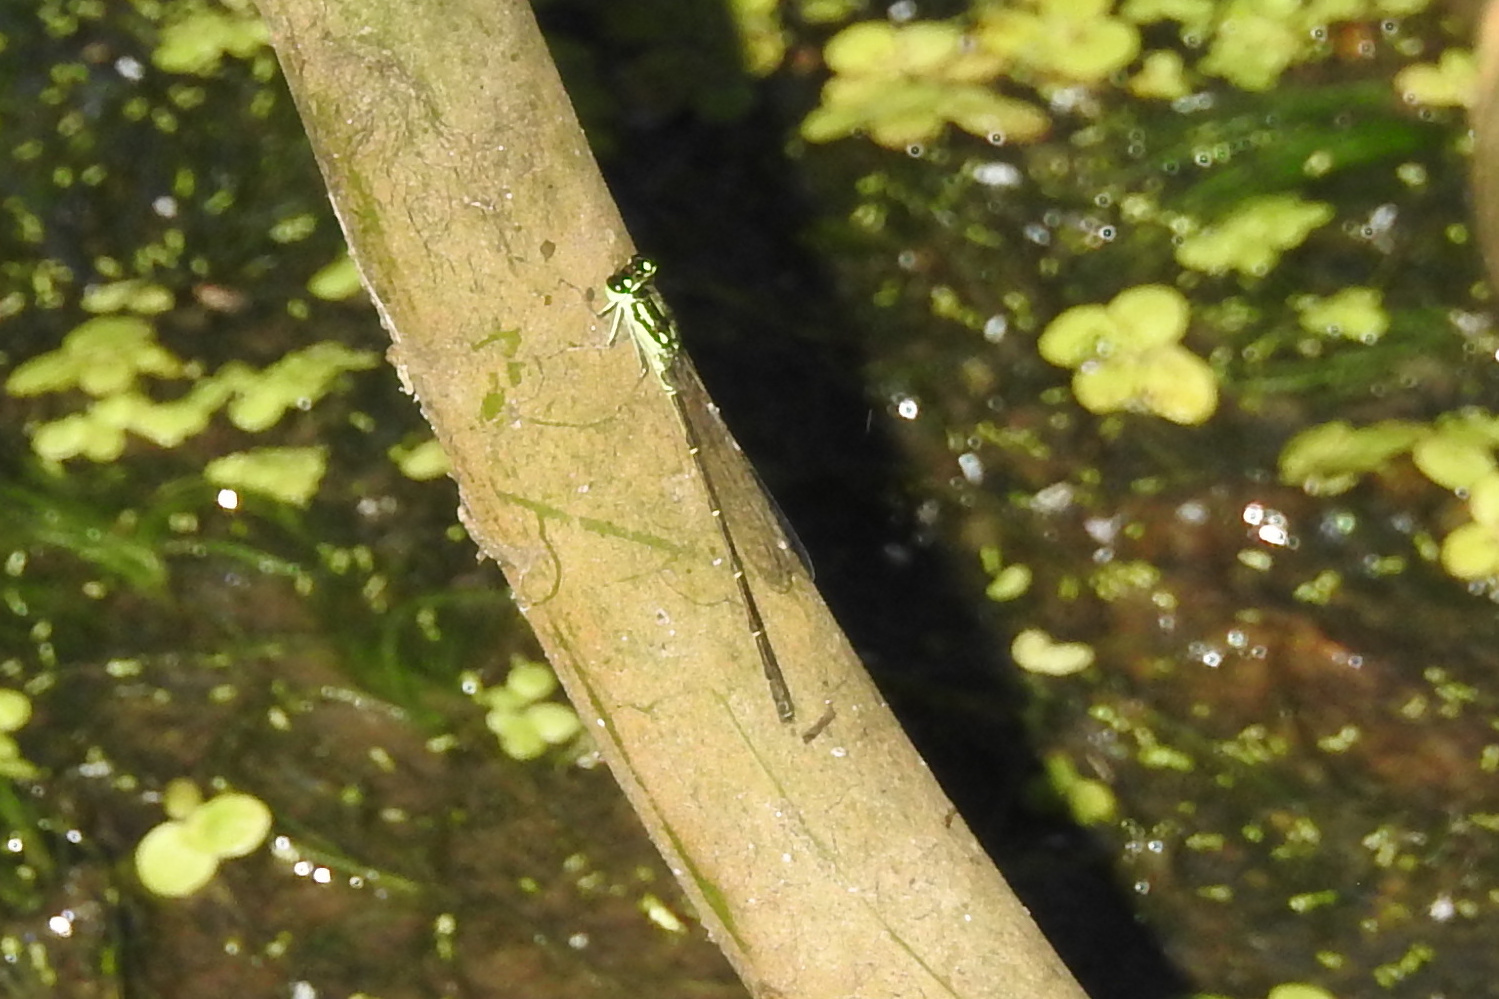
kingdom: Animalia
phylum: Arthropoda
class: Insecta
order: Odonata
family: Coenagrionidae
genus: Ischnura
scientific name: Ischnura posita
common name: Fragile forktail
